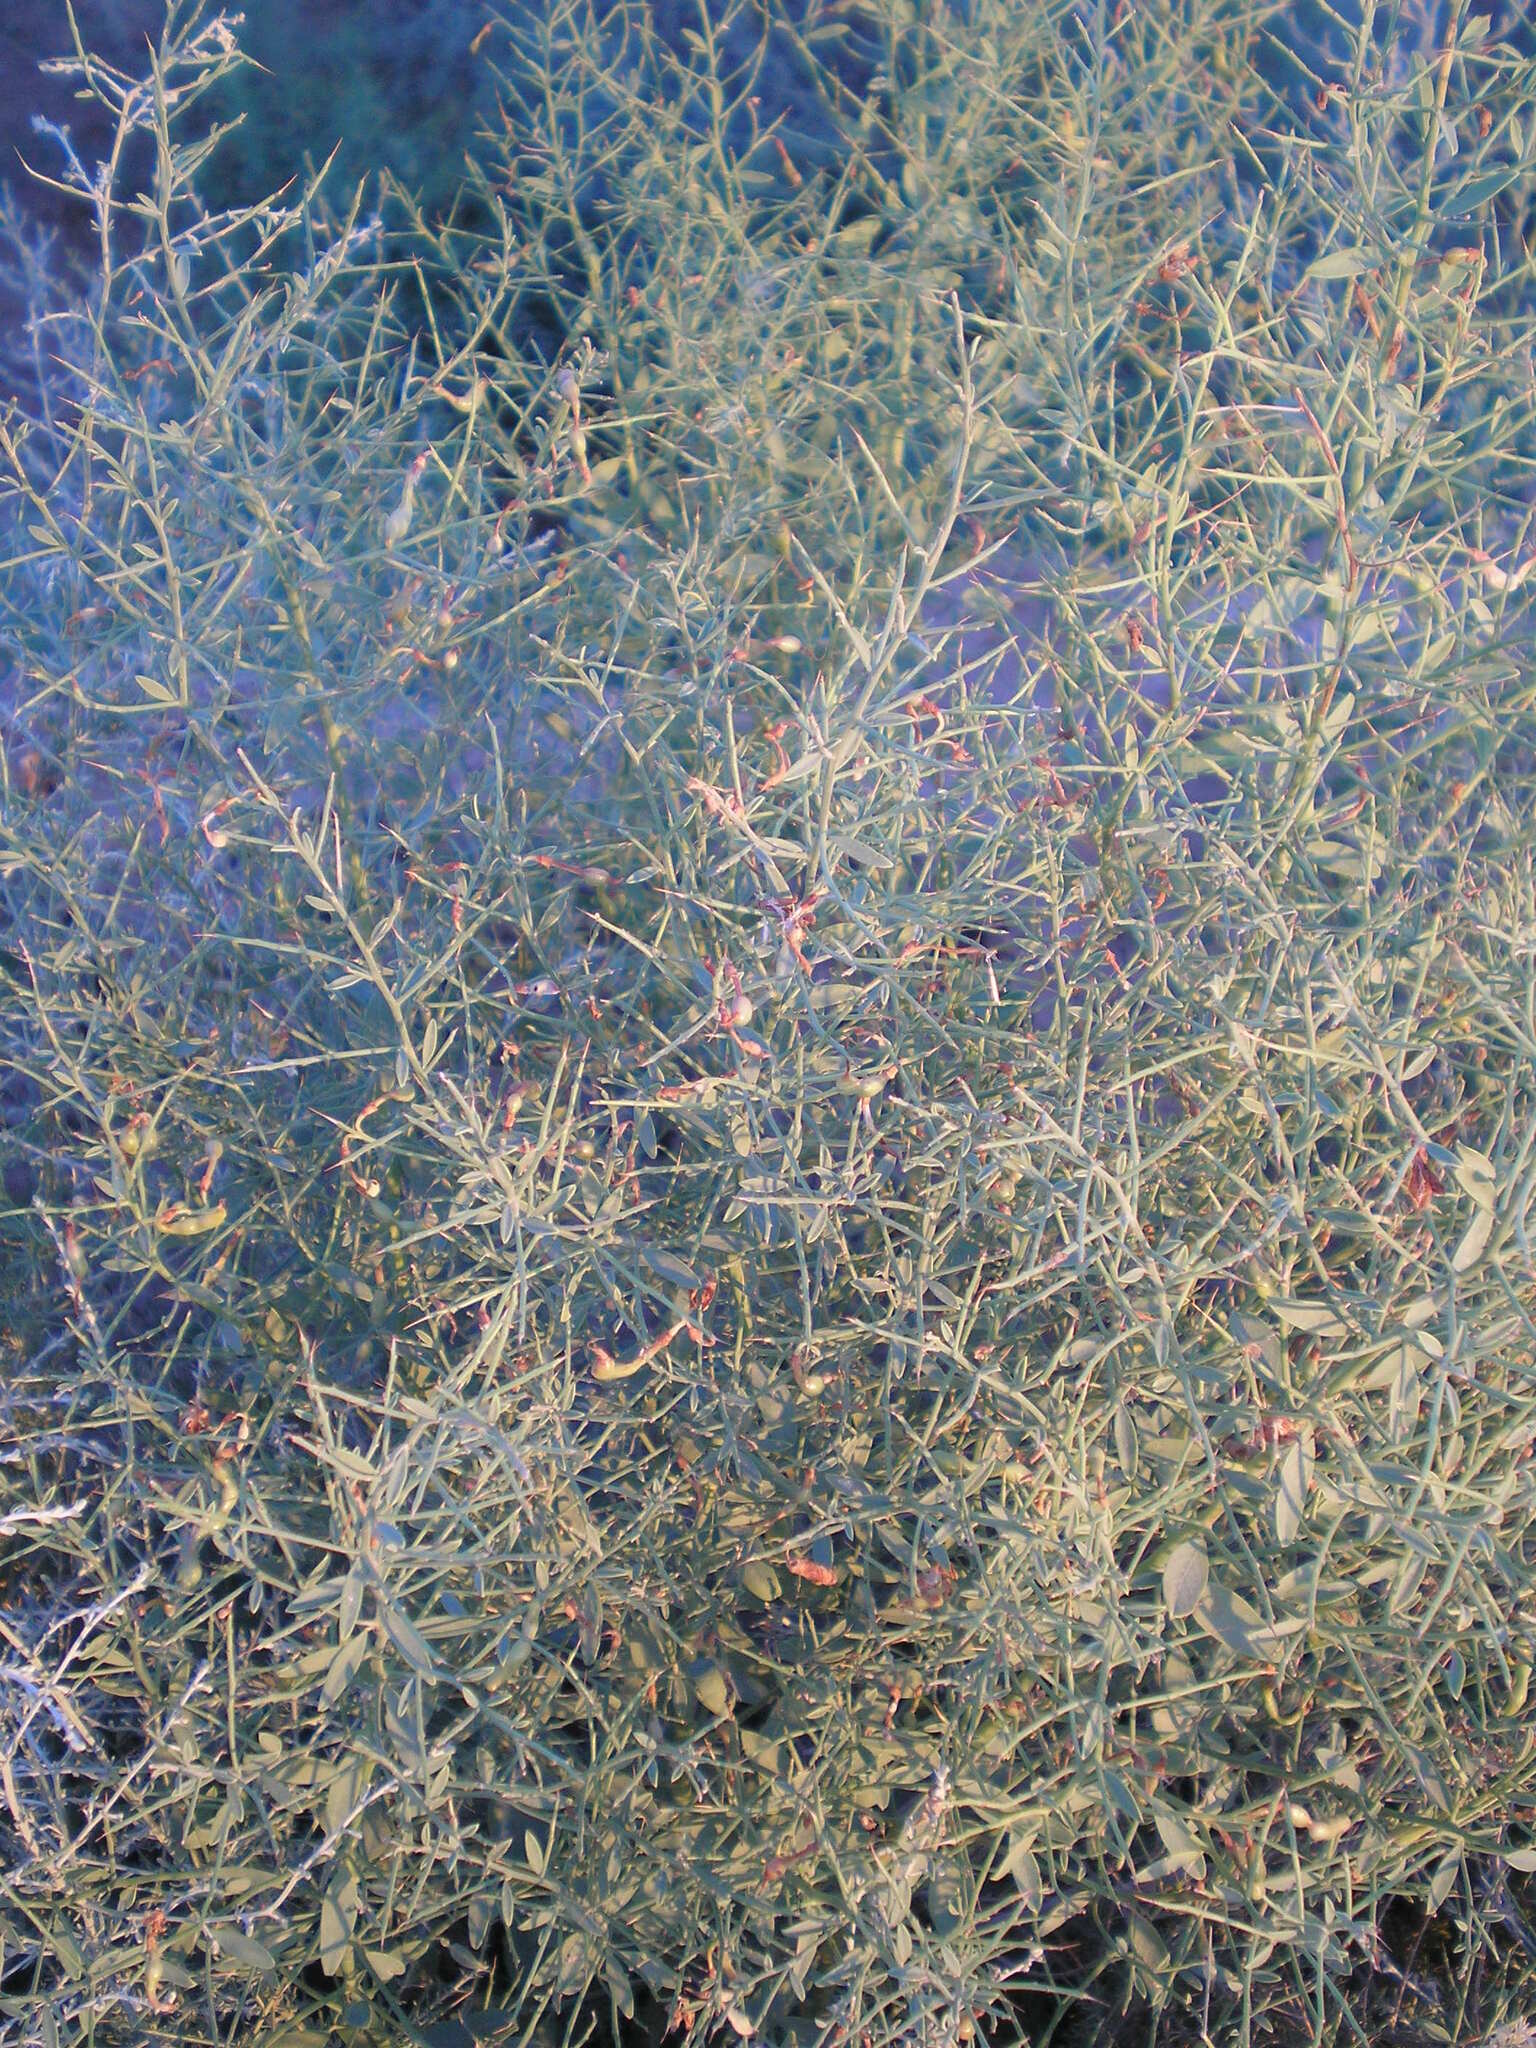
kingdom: Plantae
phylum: Tracheophyta
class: Magnoliopsida
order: Fabales
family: Fabaceae
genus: Alhagi
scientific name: Alhagi pseudalhagi
